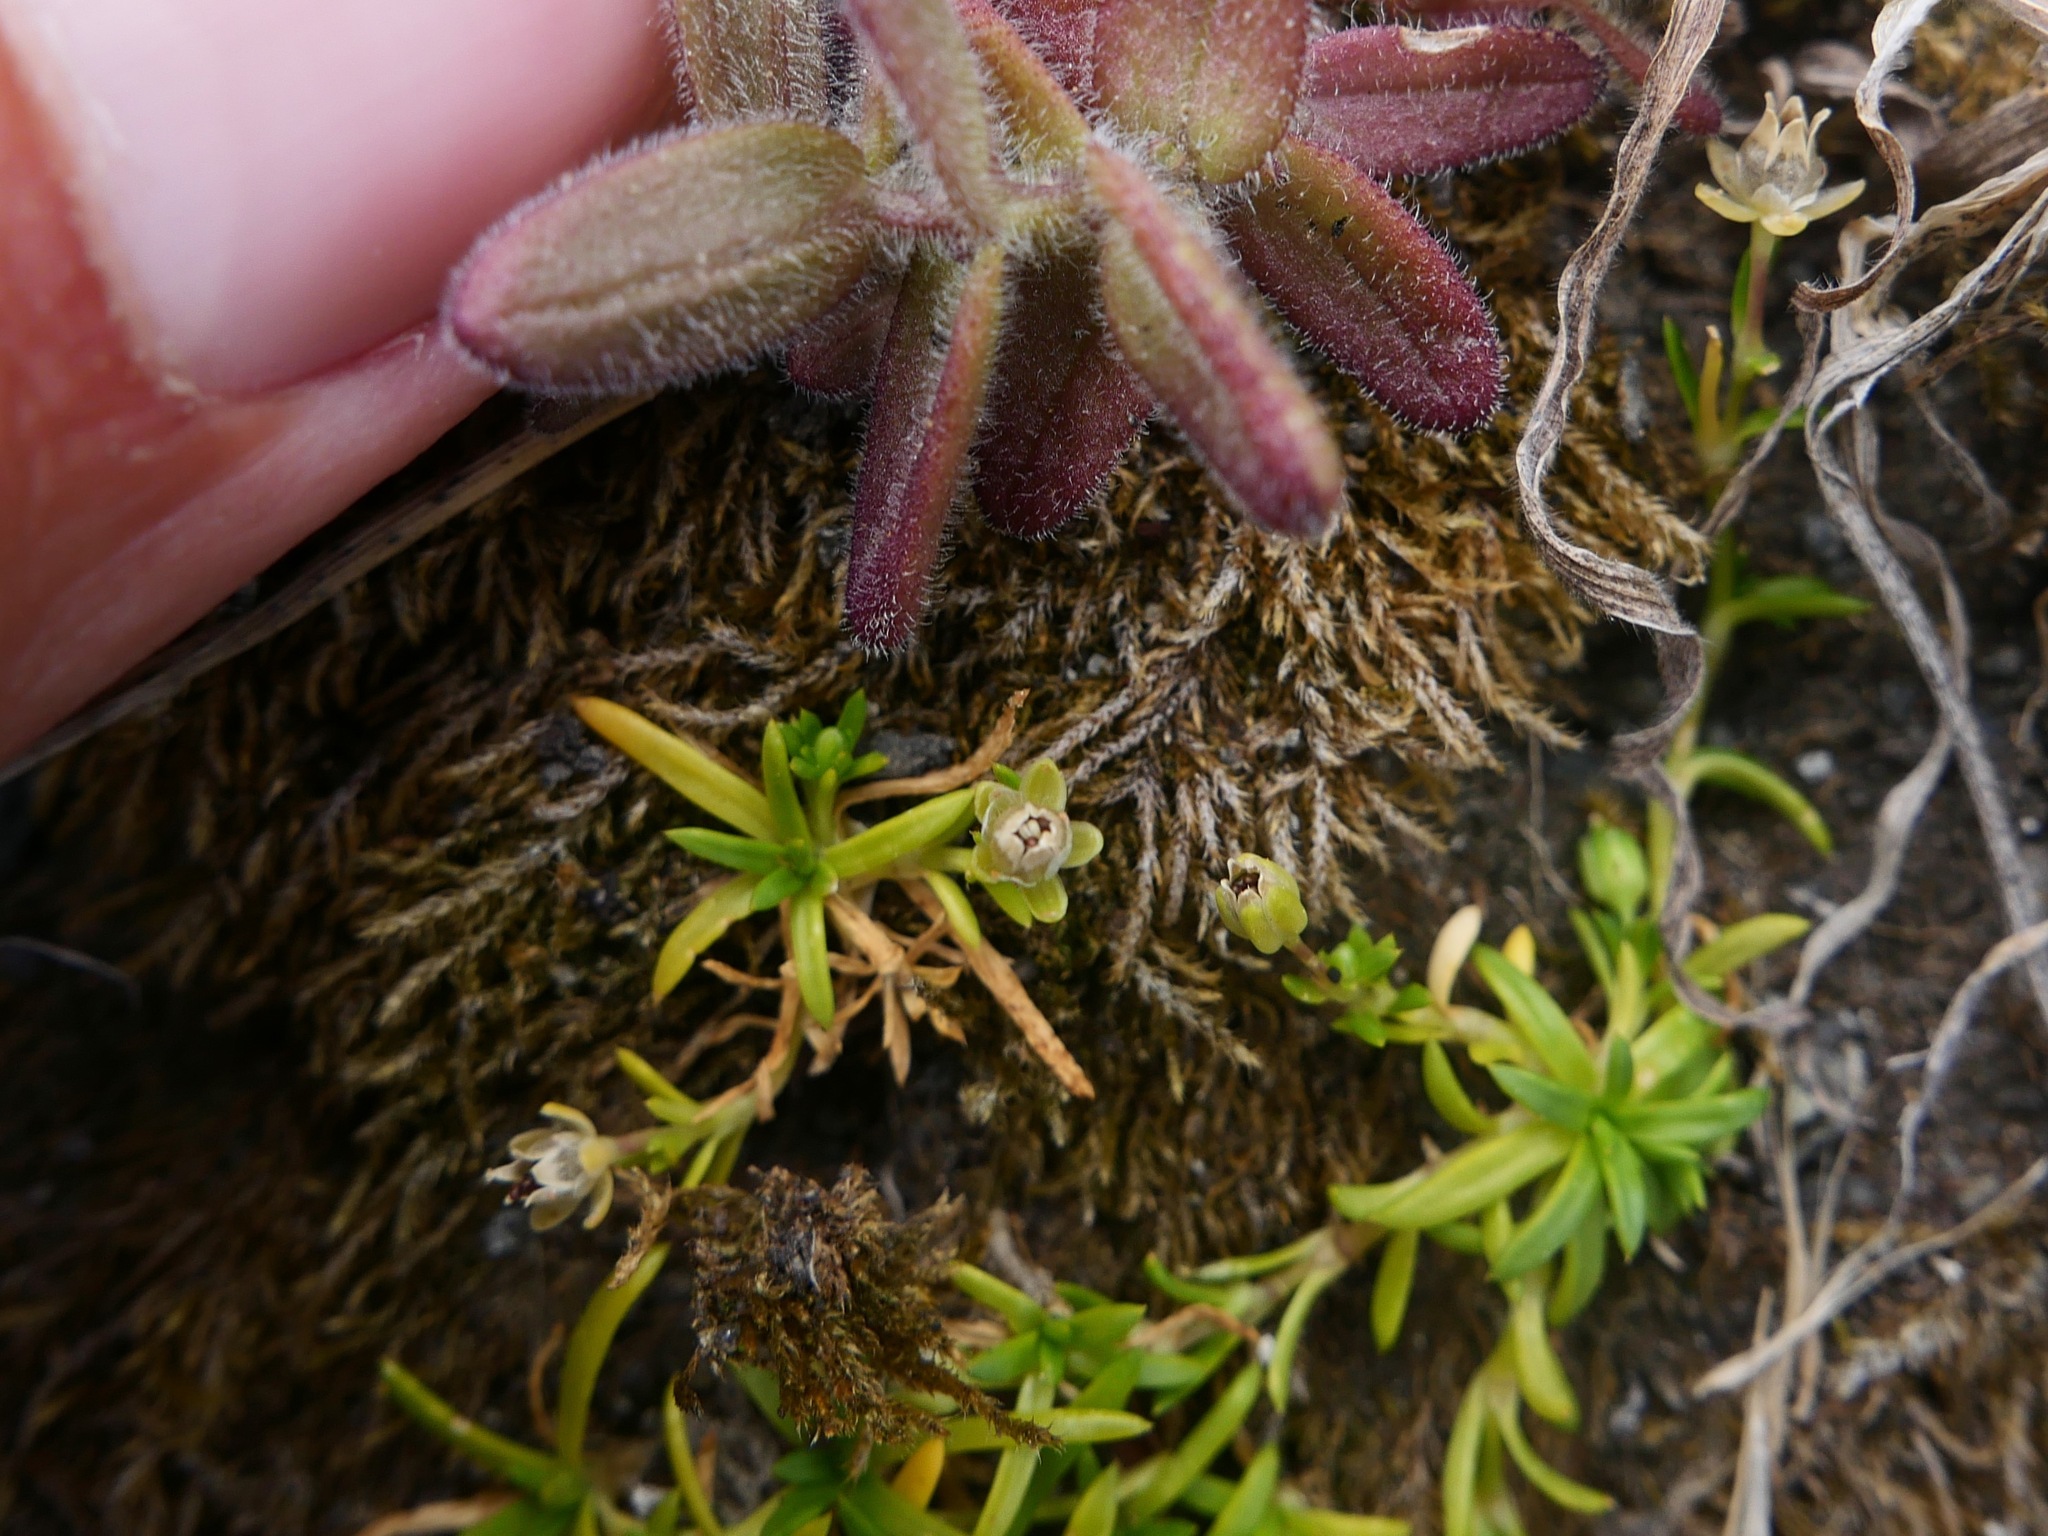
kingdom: Plantae
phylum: Tracheophyta
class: Magnoliopsida
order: Caryophyllales
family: Caryophyllaceae
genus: Spergularia
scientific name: Spergularia macrotheca
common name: Beach sand-spurrey
